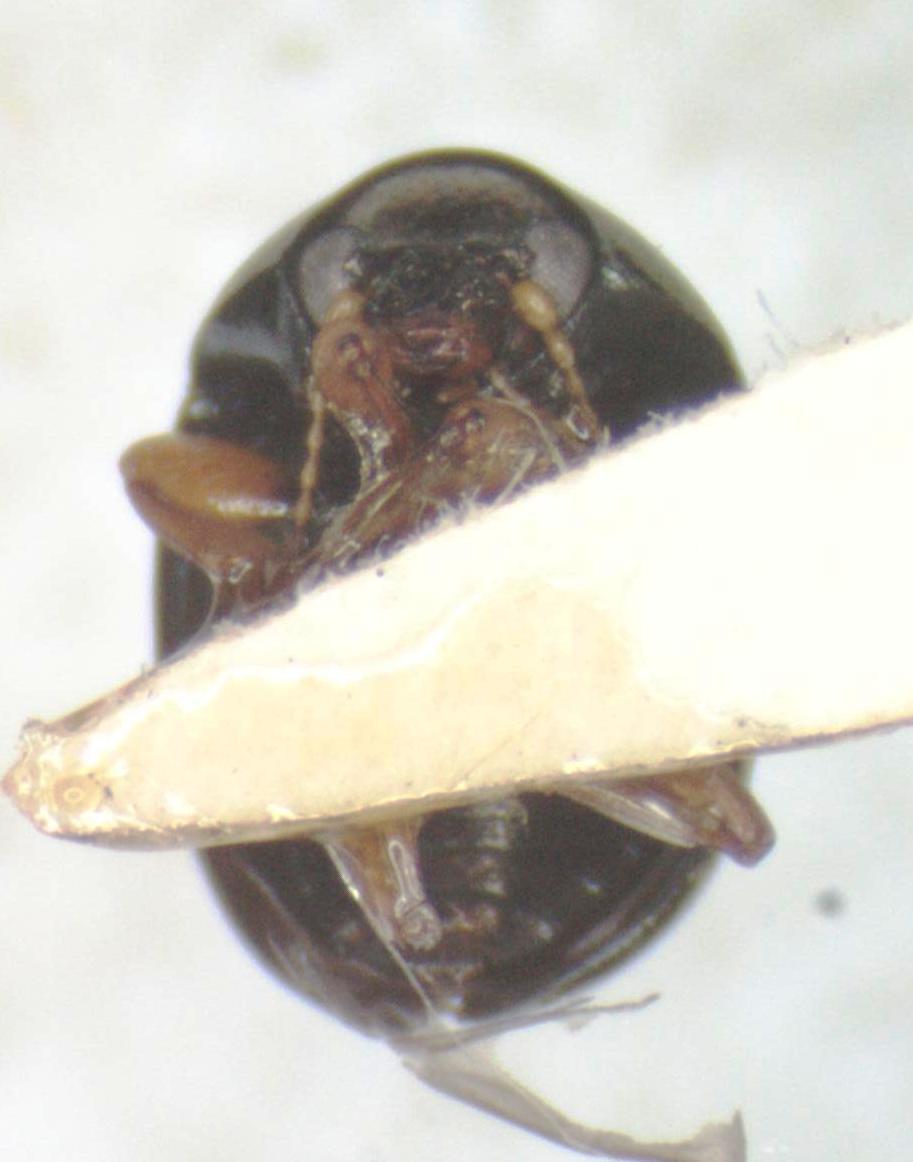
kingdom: Animalia
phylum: Arthropoda
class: Insecta
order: Coleoptera
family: Chrysomelidae
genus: Metaparia
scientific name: Metaparia
